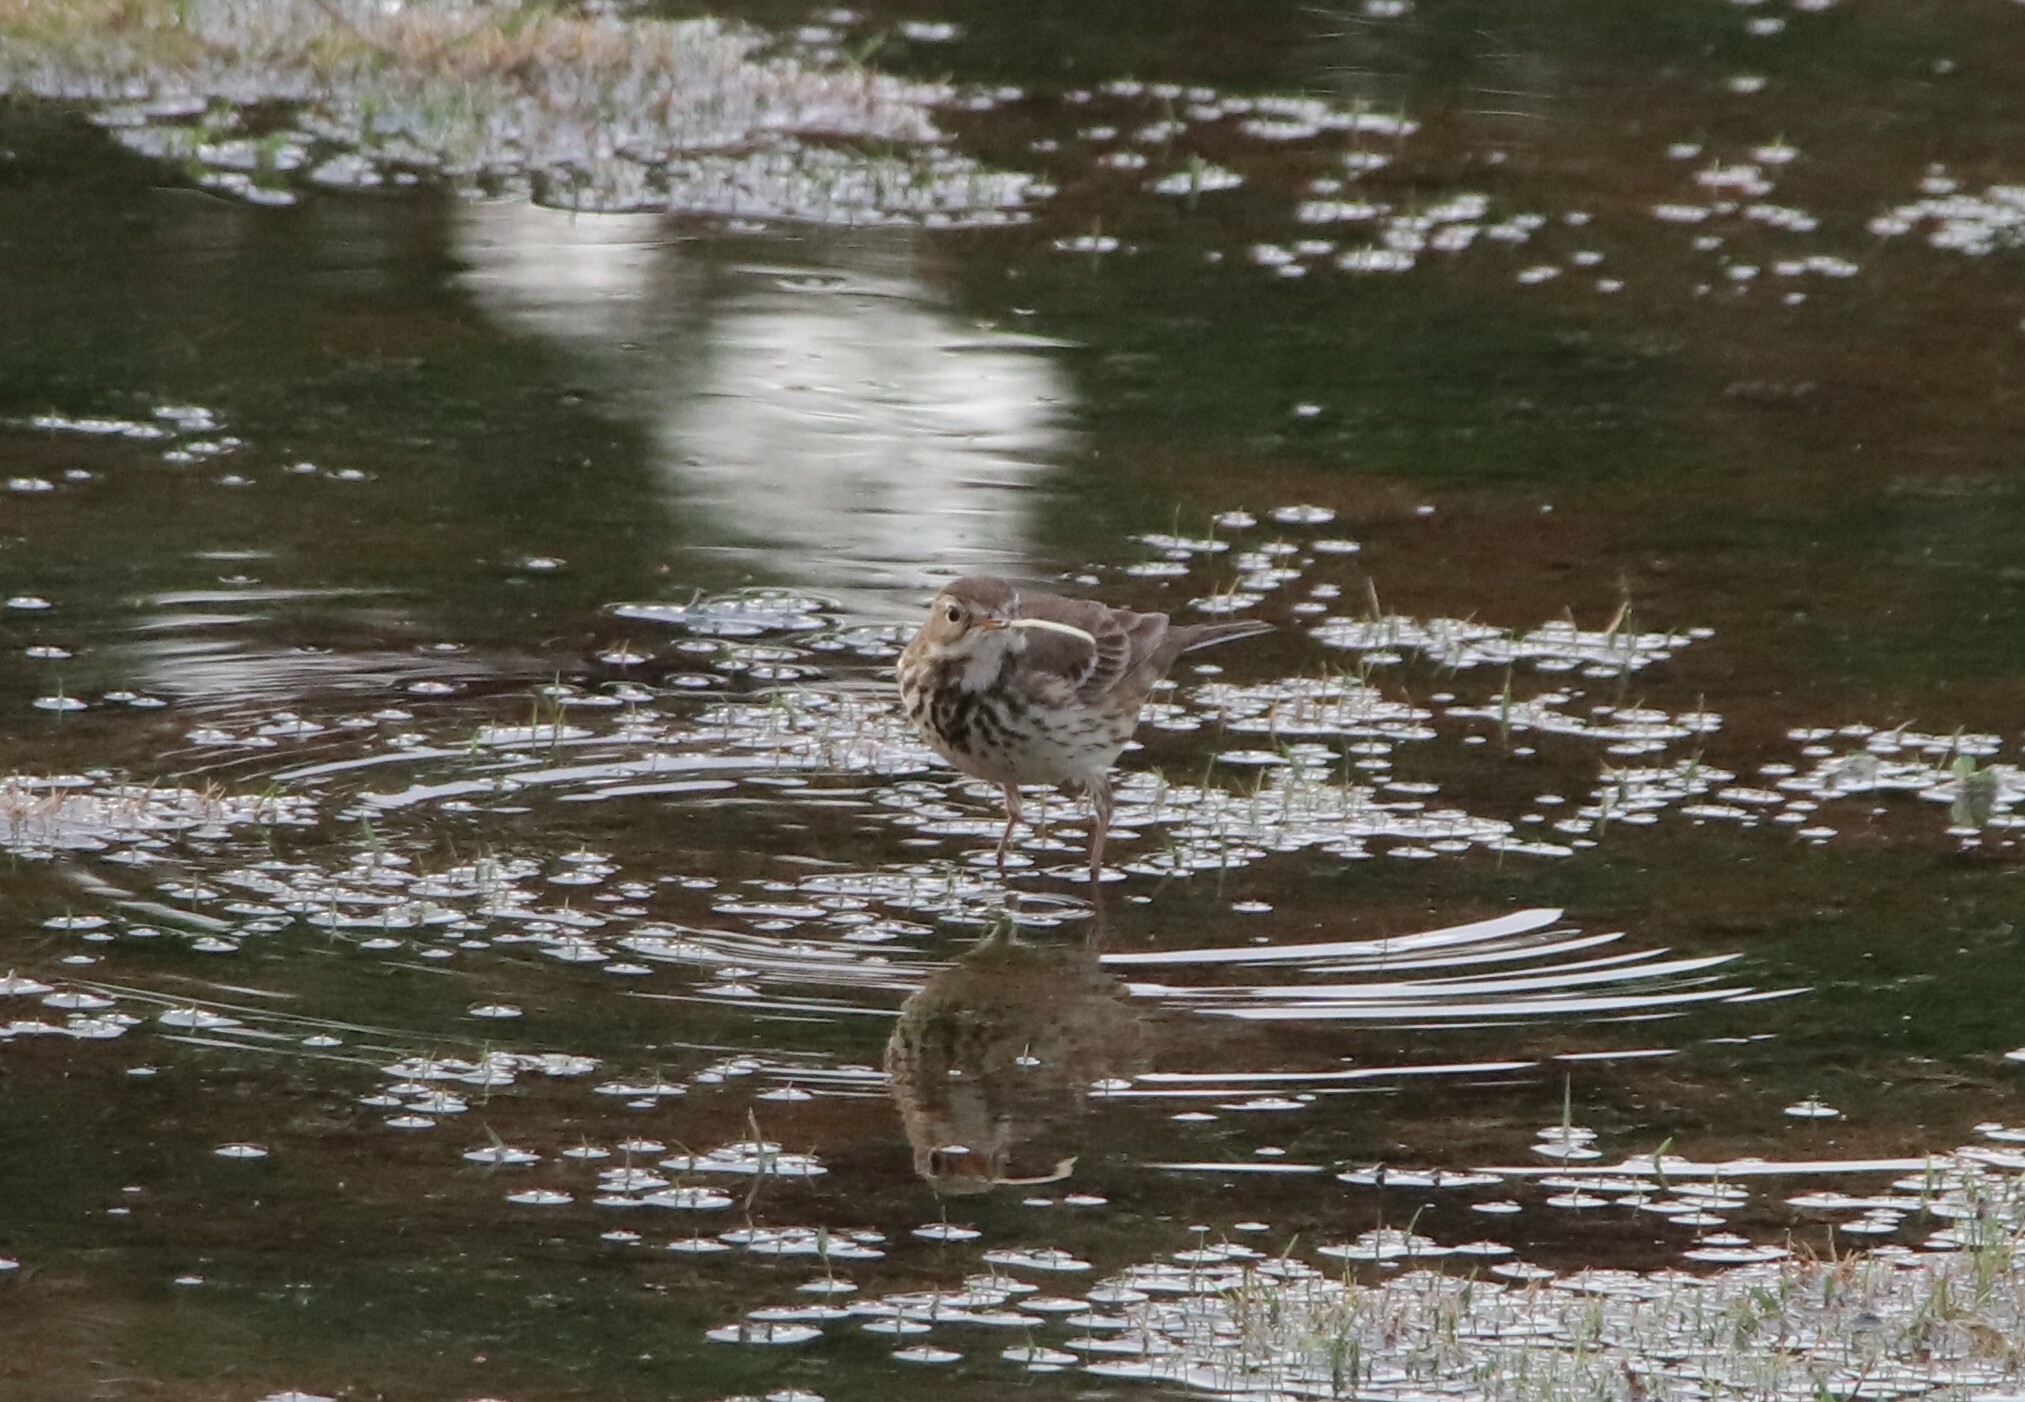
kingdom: Animalia
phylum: Chordata
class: Aves
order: Passeriformes
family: Motacillidae
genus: Anthus
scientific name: Anthus rubescens
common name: Buff-bellied pipit
